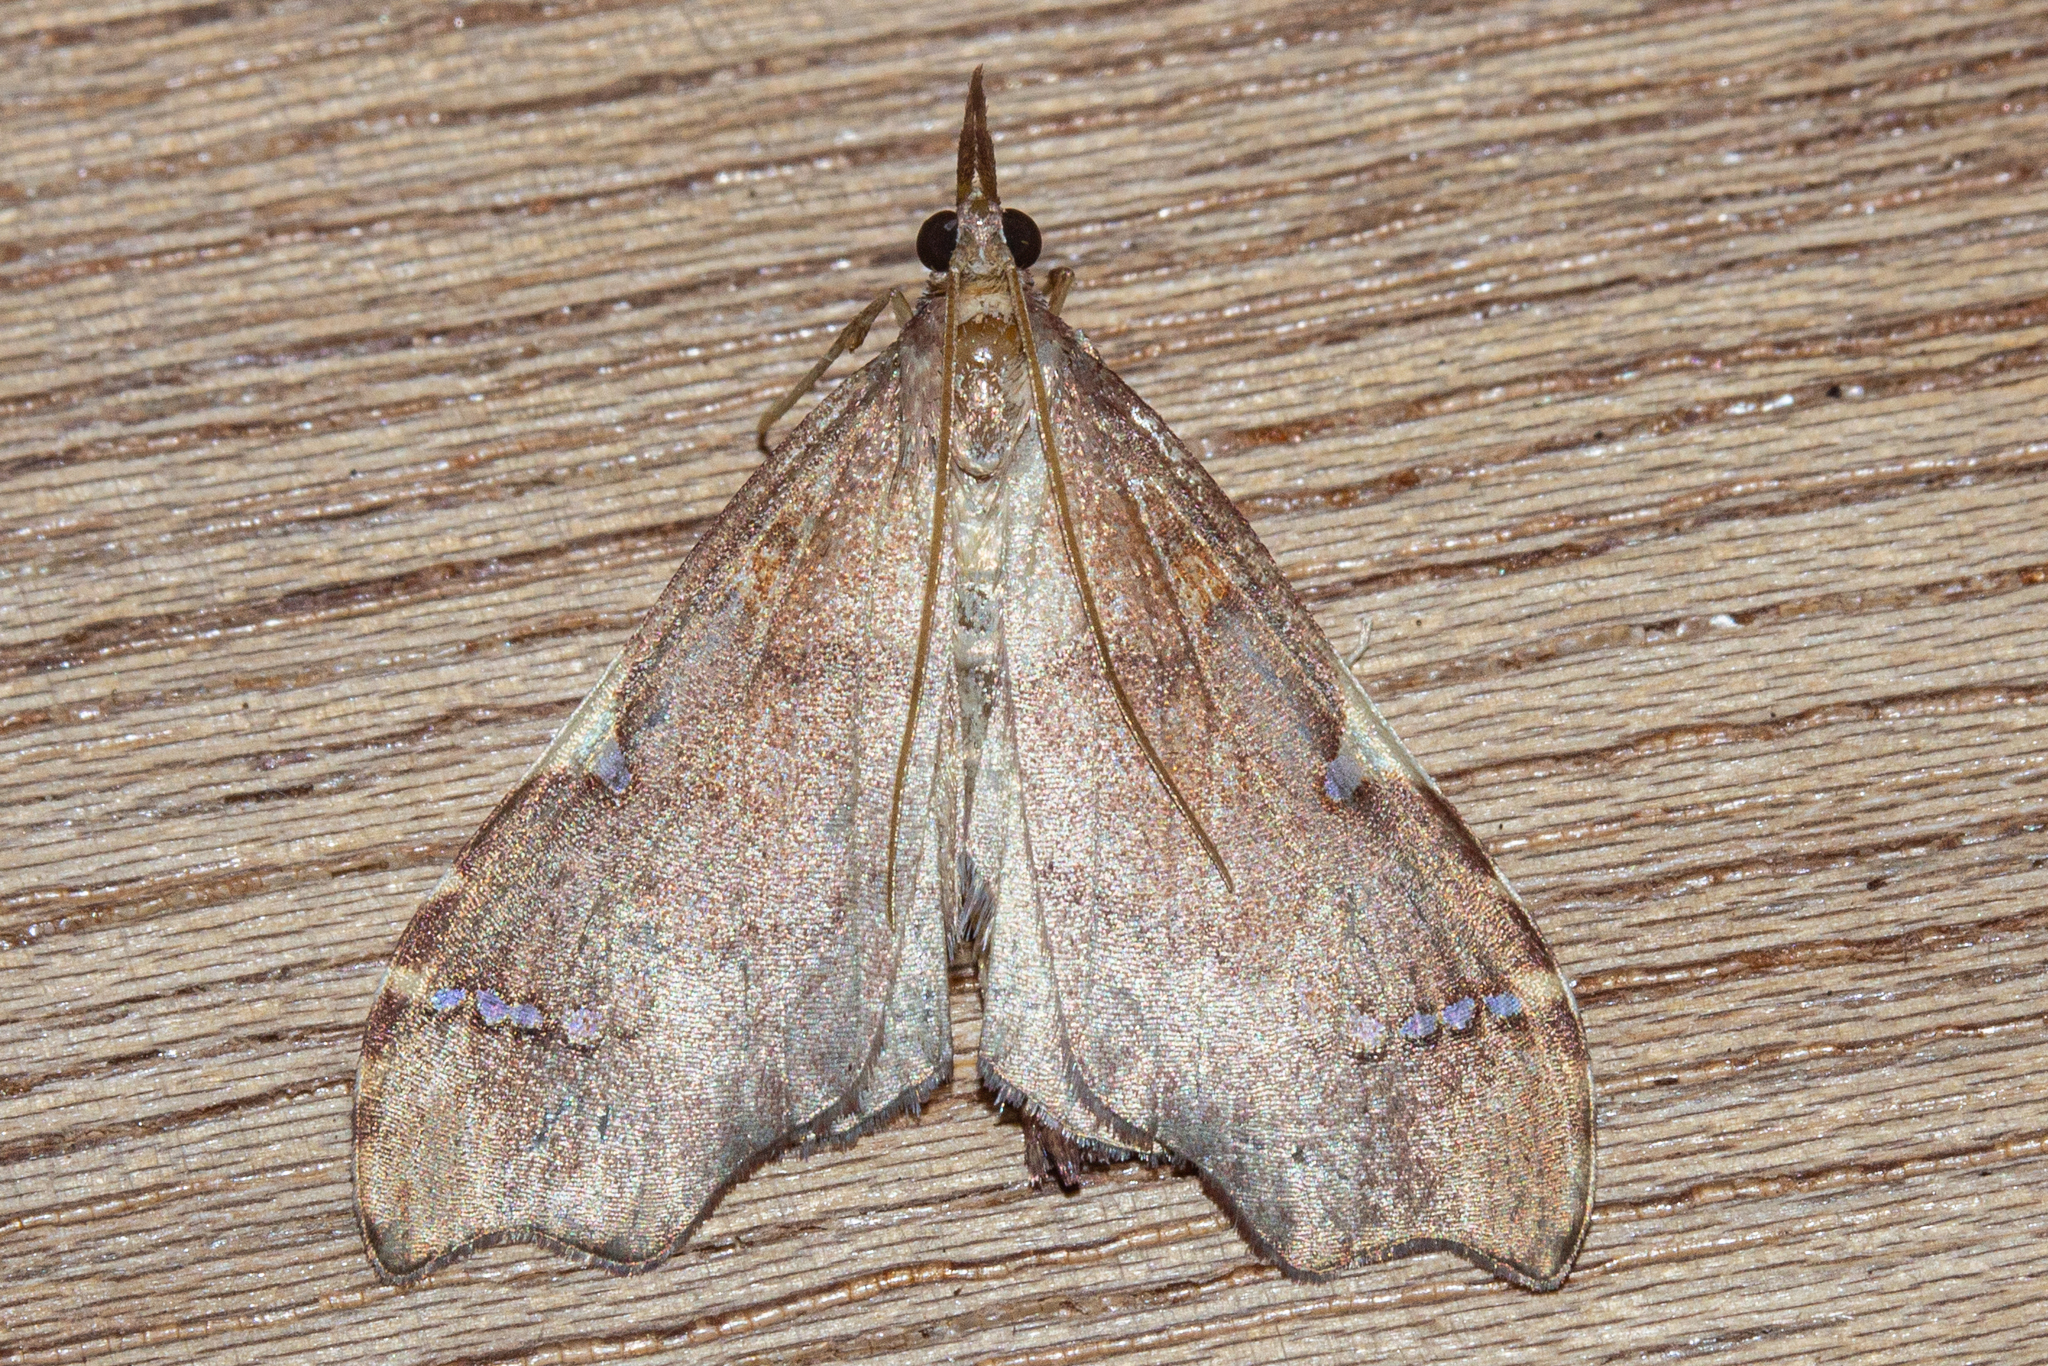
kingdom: Animalia
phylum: Arthropoda
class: Insecta
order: Lepidoptera
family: Crambidae
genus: Deana
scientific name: Deana hybreasalis
